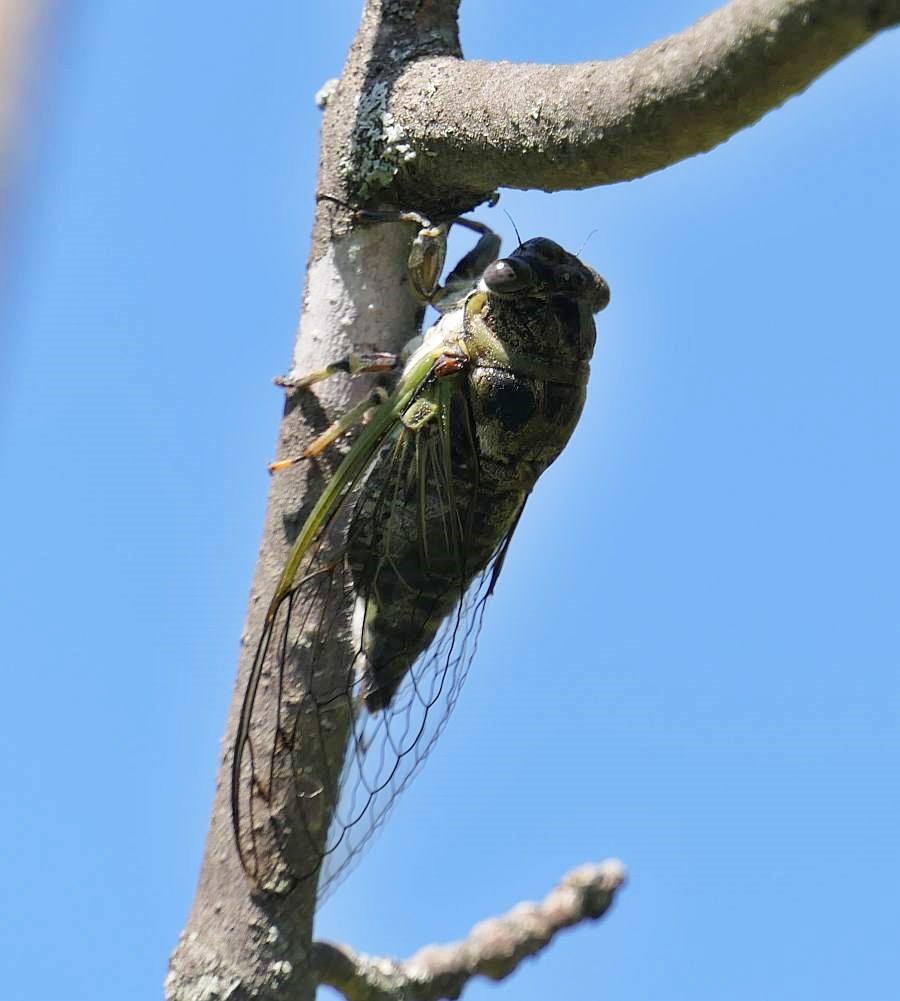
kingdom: Animalia
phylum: Arthropoda
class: Insecta
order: Hemiptera
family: Cicadidae
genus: Neotibicen
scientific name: Neotibicen canicularis
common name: God-day cicada
